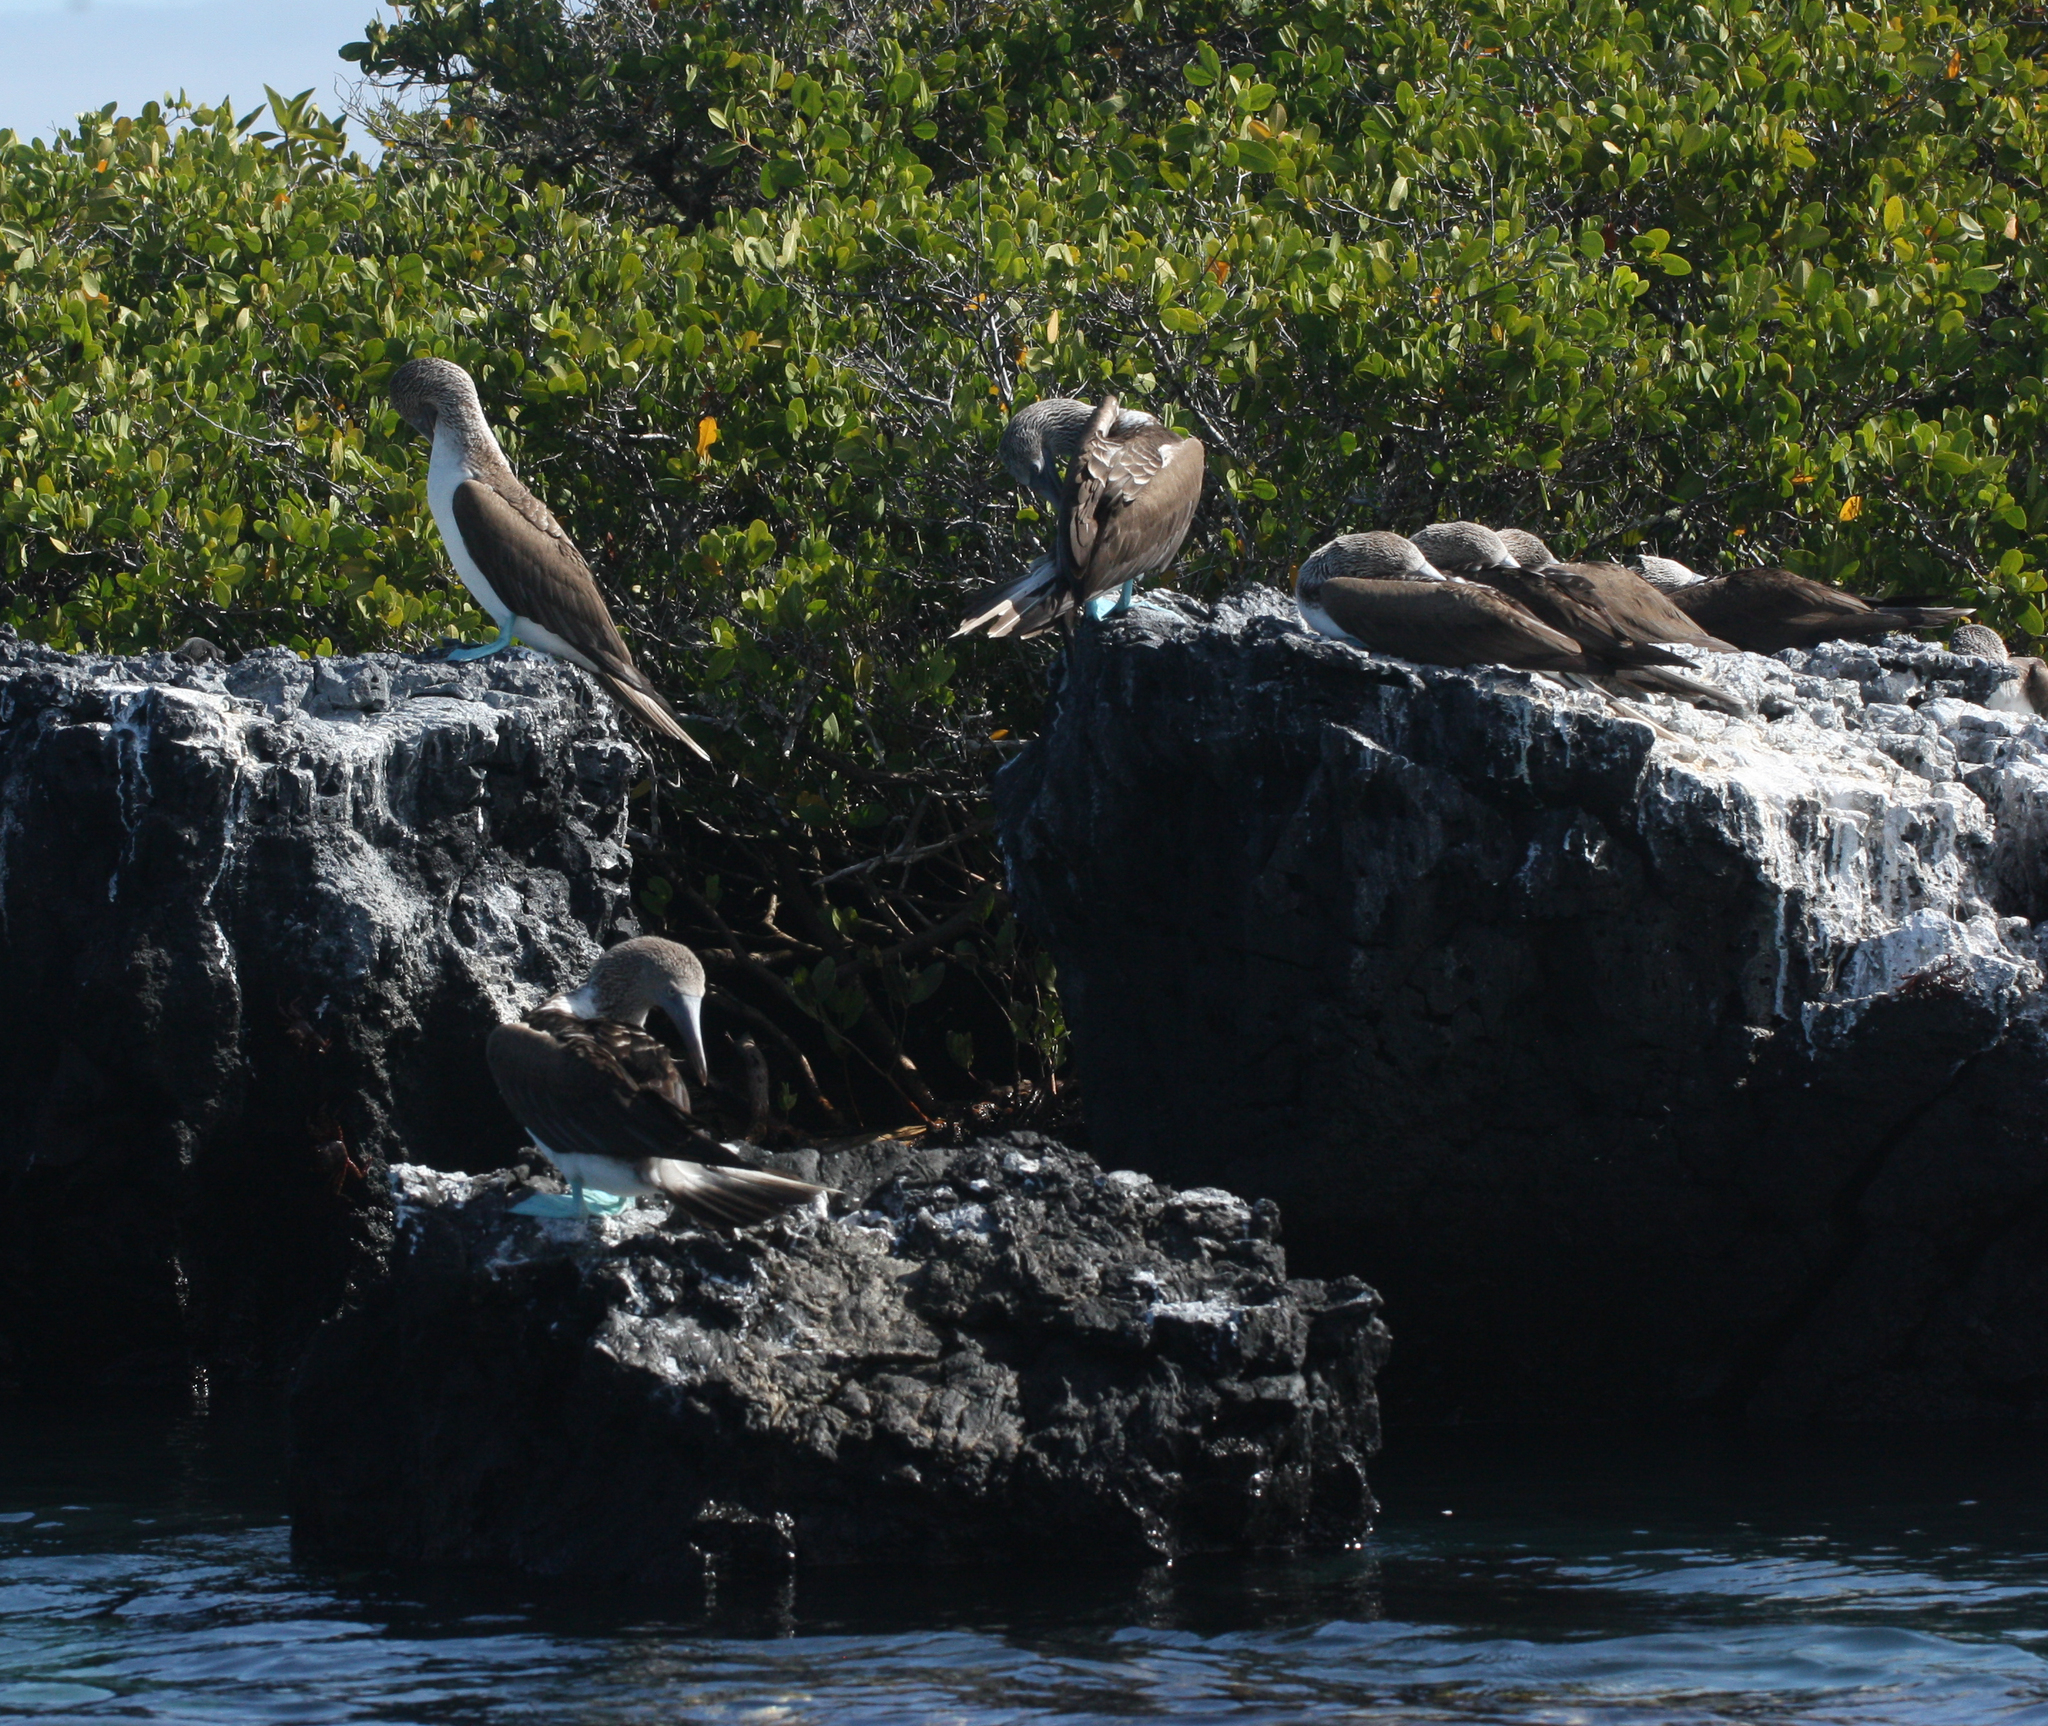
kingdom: Animalia
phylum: Chordata
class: Aves
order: Suliformes
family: Sulidae
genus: Sula
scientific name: Sula nebouxii
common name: Blue-footed booby
